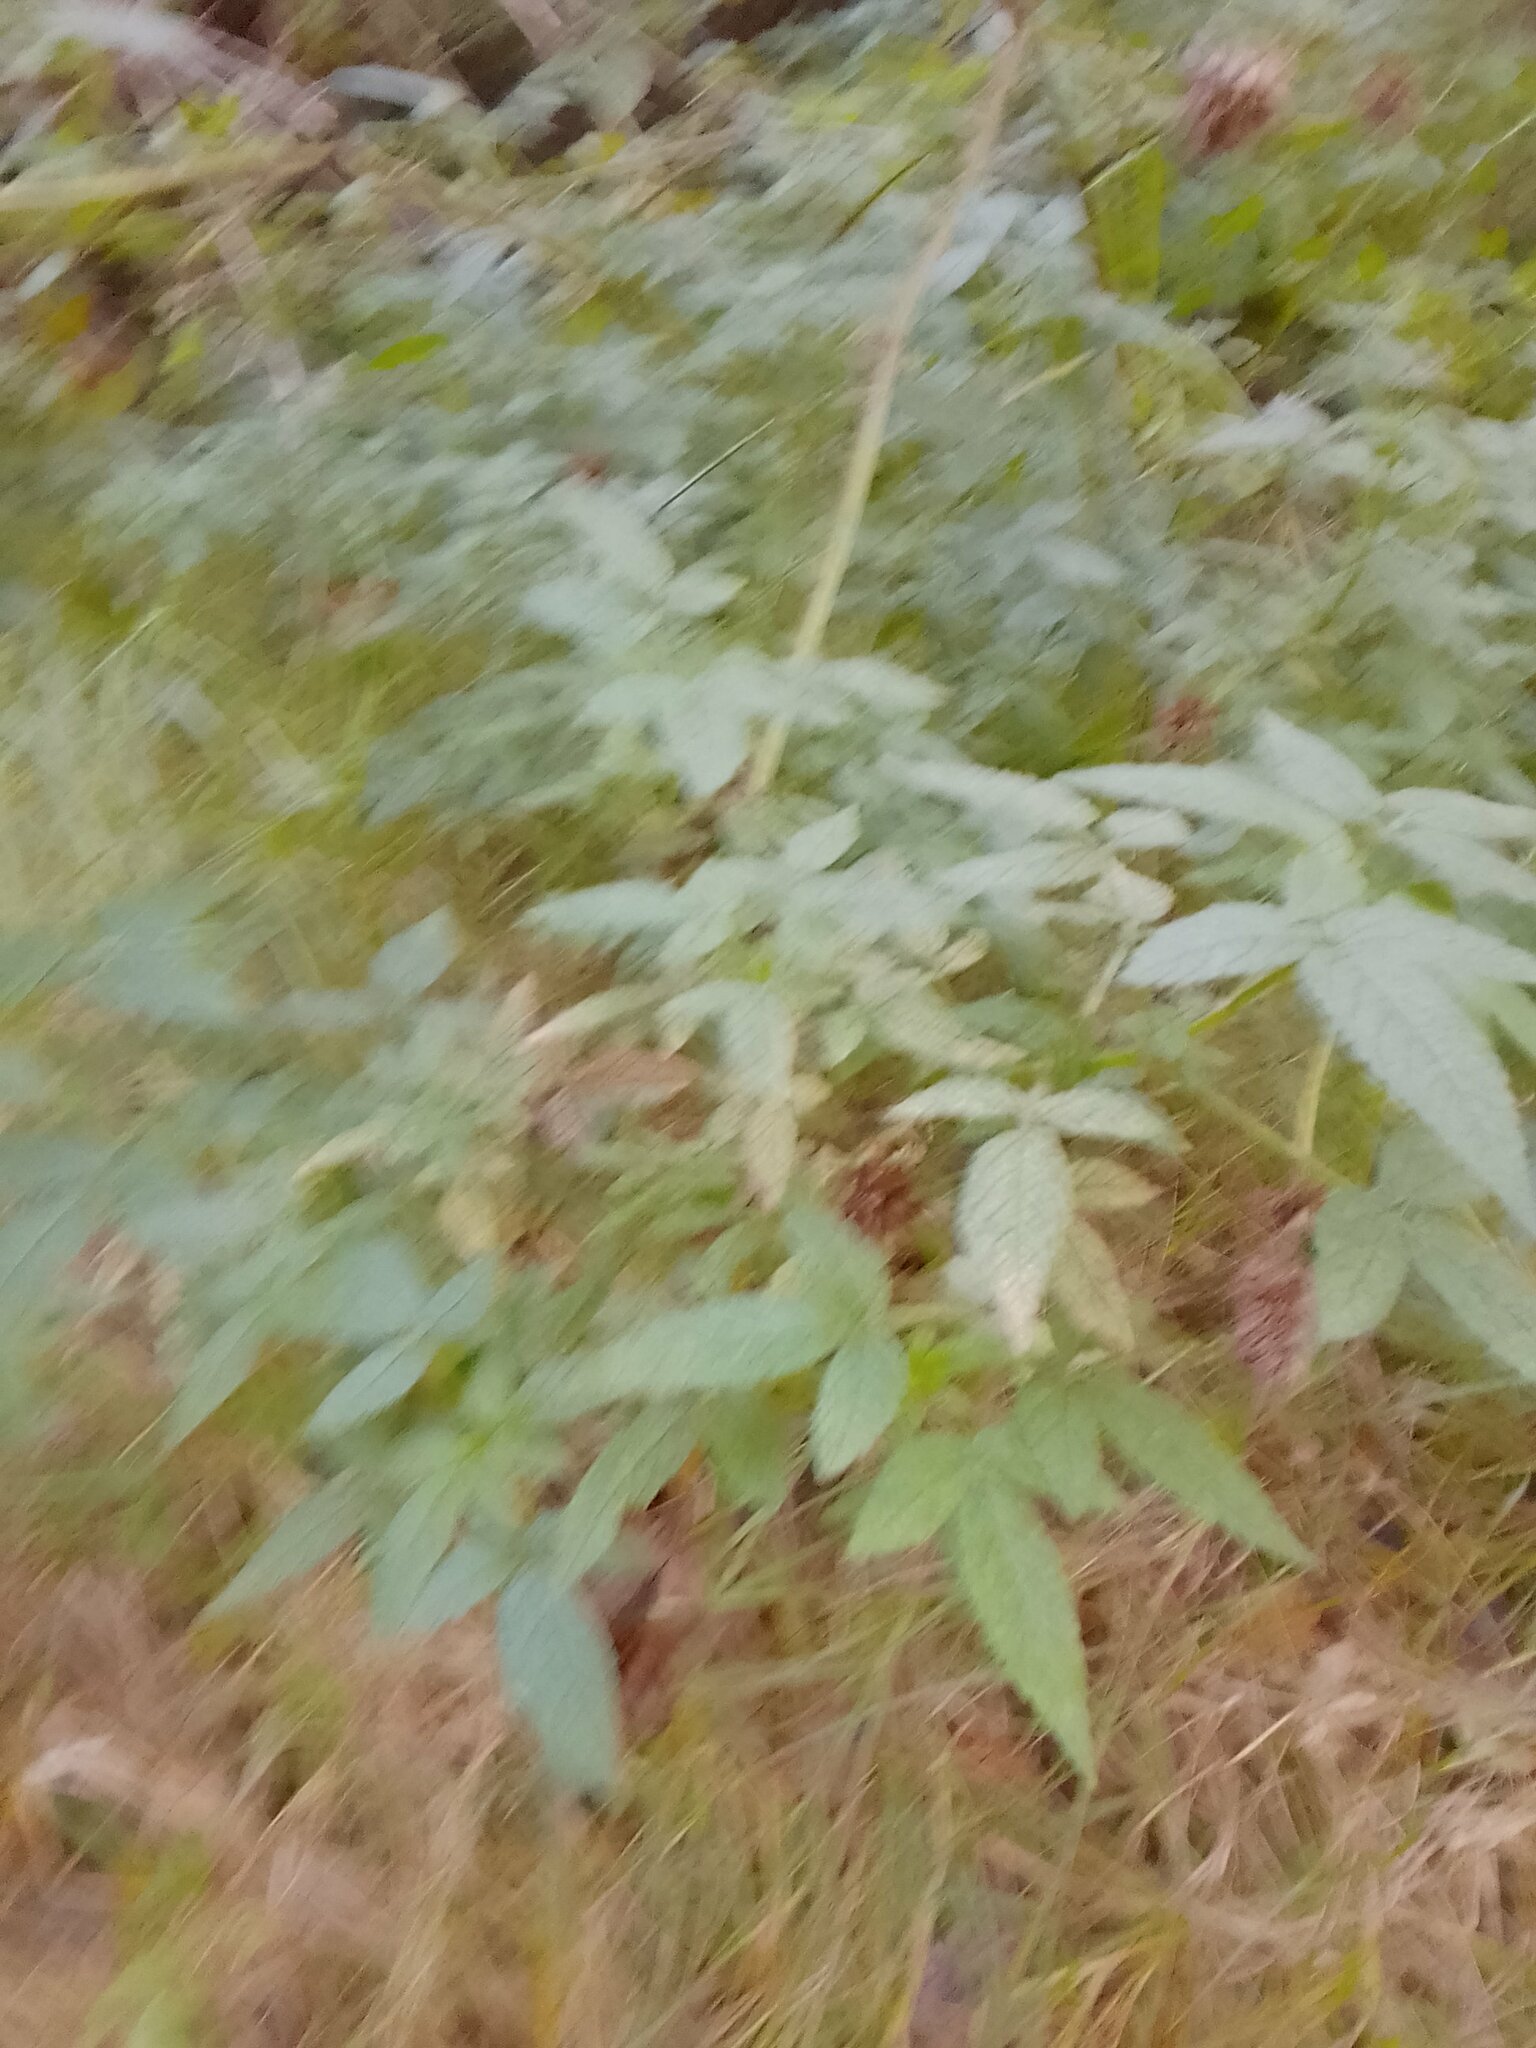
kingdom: Plantae
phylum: Tracheophyta
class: Magnoliopsida
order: Lamiales
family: Lamiaceae
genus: Cedronella
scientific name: Cedronella canariensis
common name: Canary islands balm
